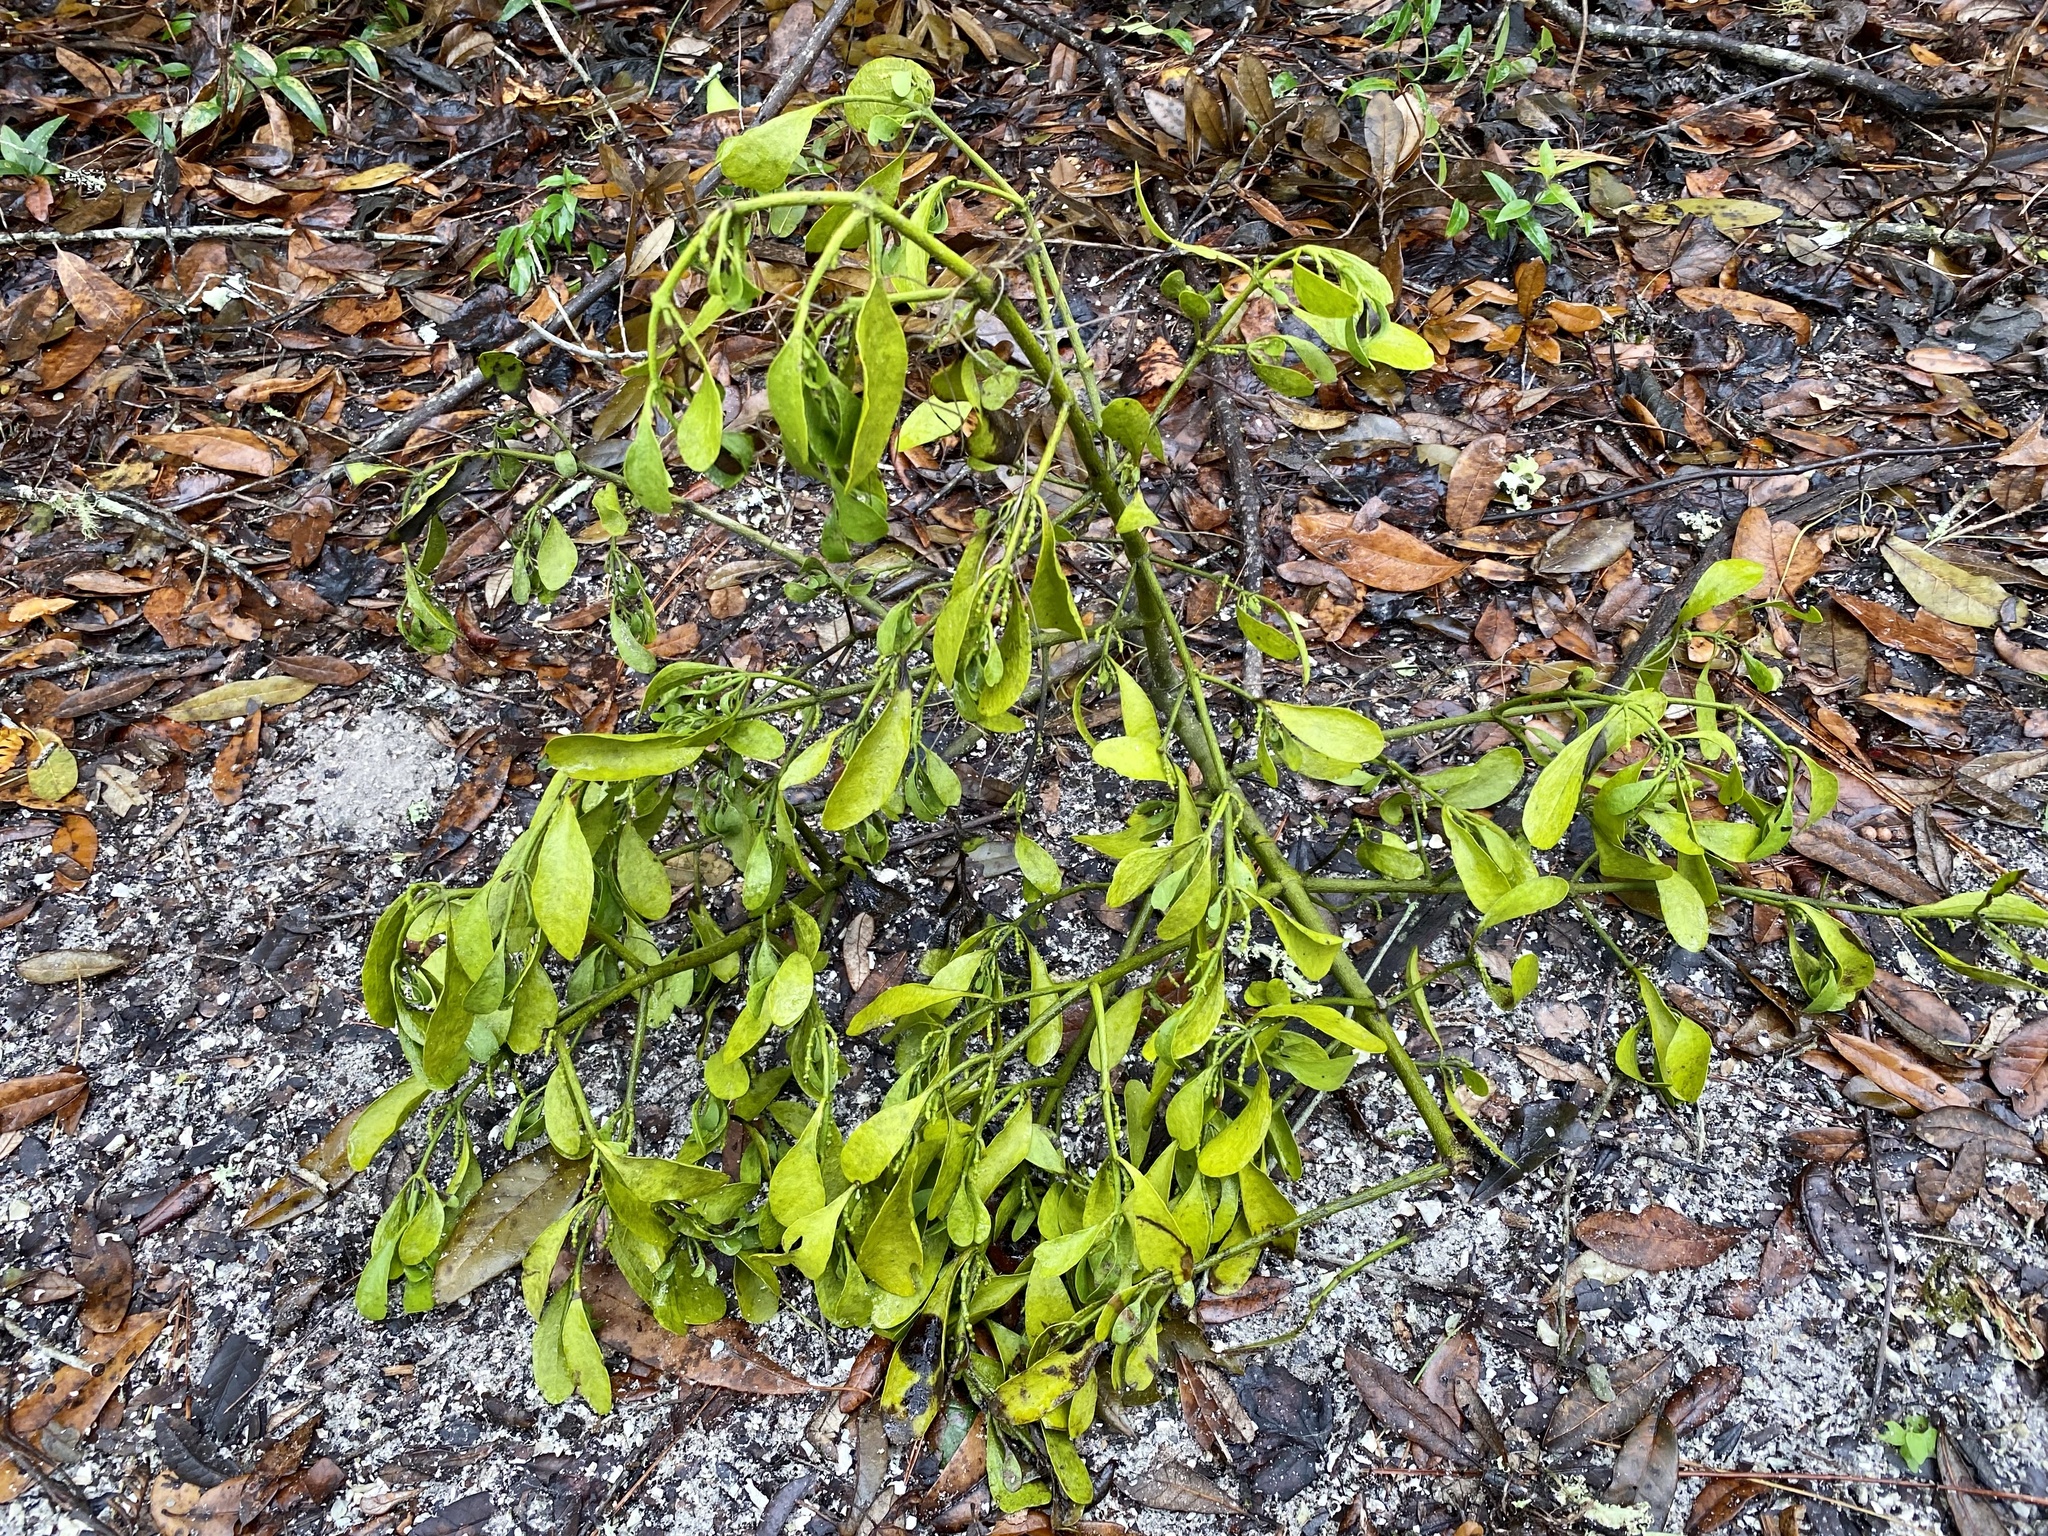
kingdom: Plantae
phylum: Tracheophyta
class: Magnoliopsida
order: Santalales
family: Viscaceae
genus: Phoradendron
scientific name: Phoradendron leucarpum
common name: Pacific mistletoe
